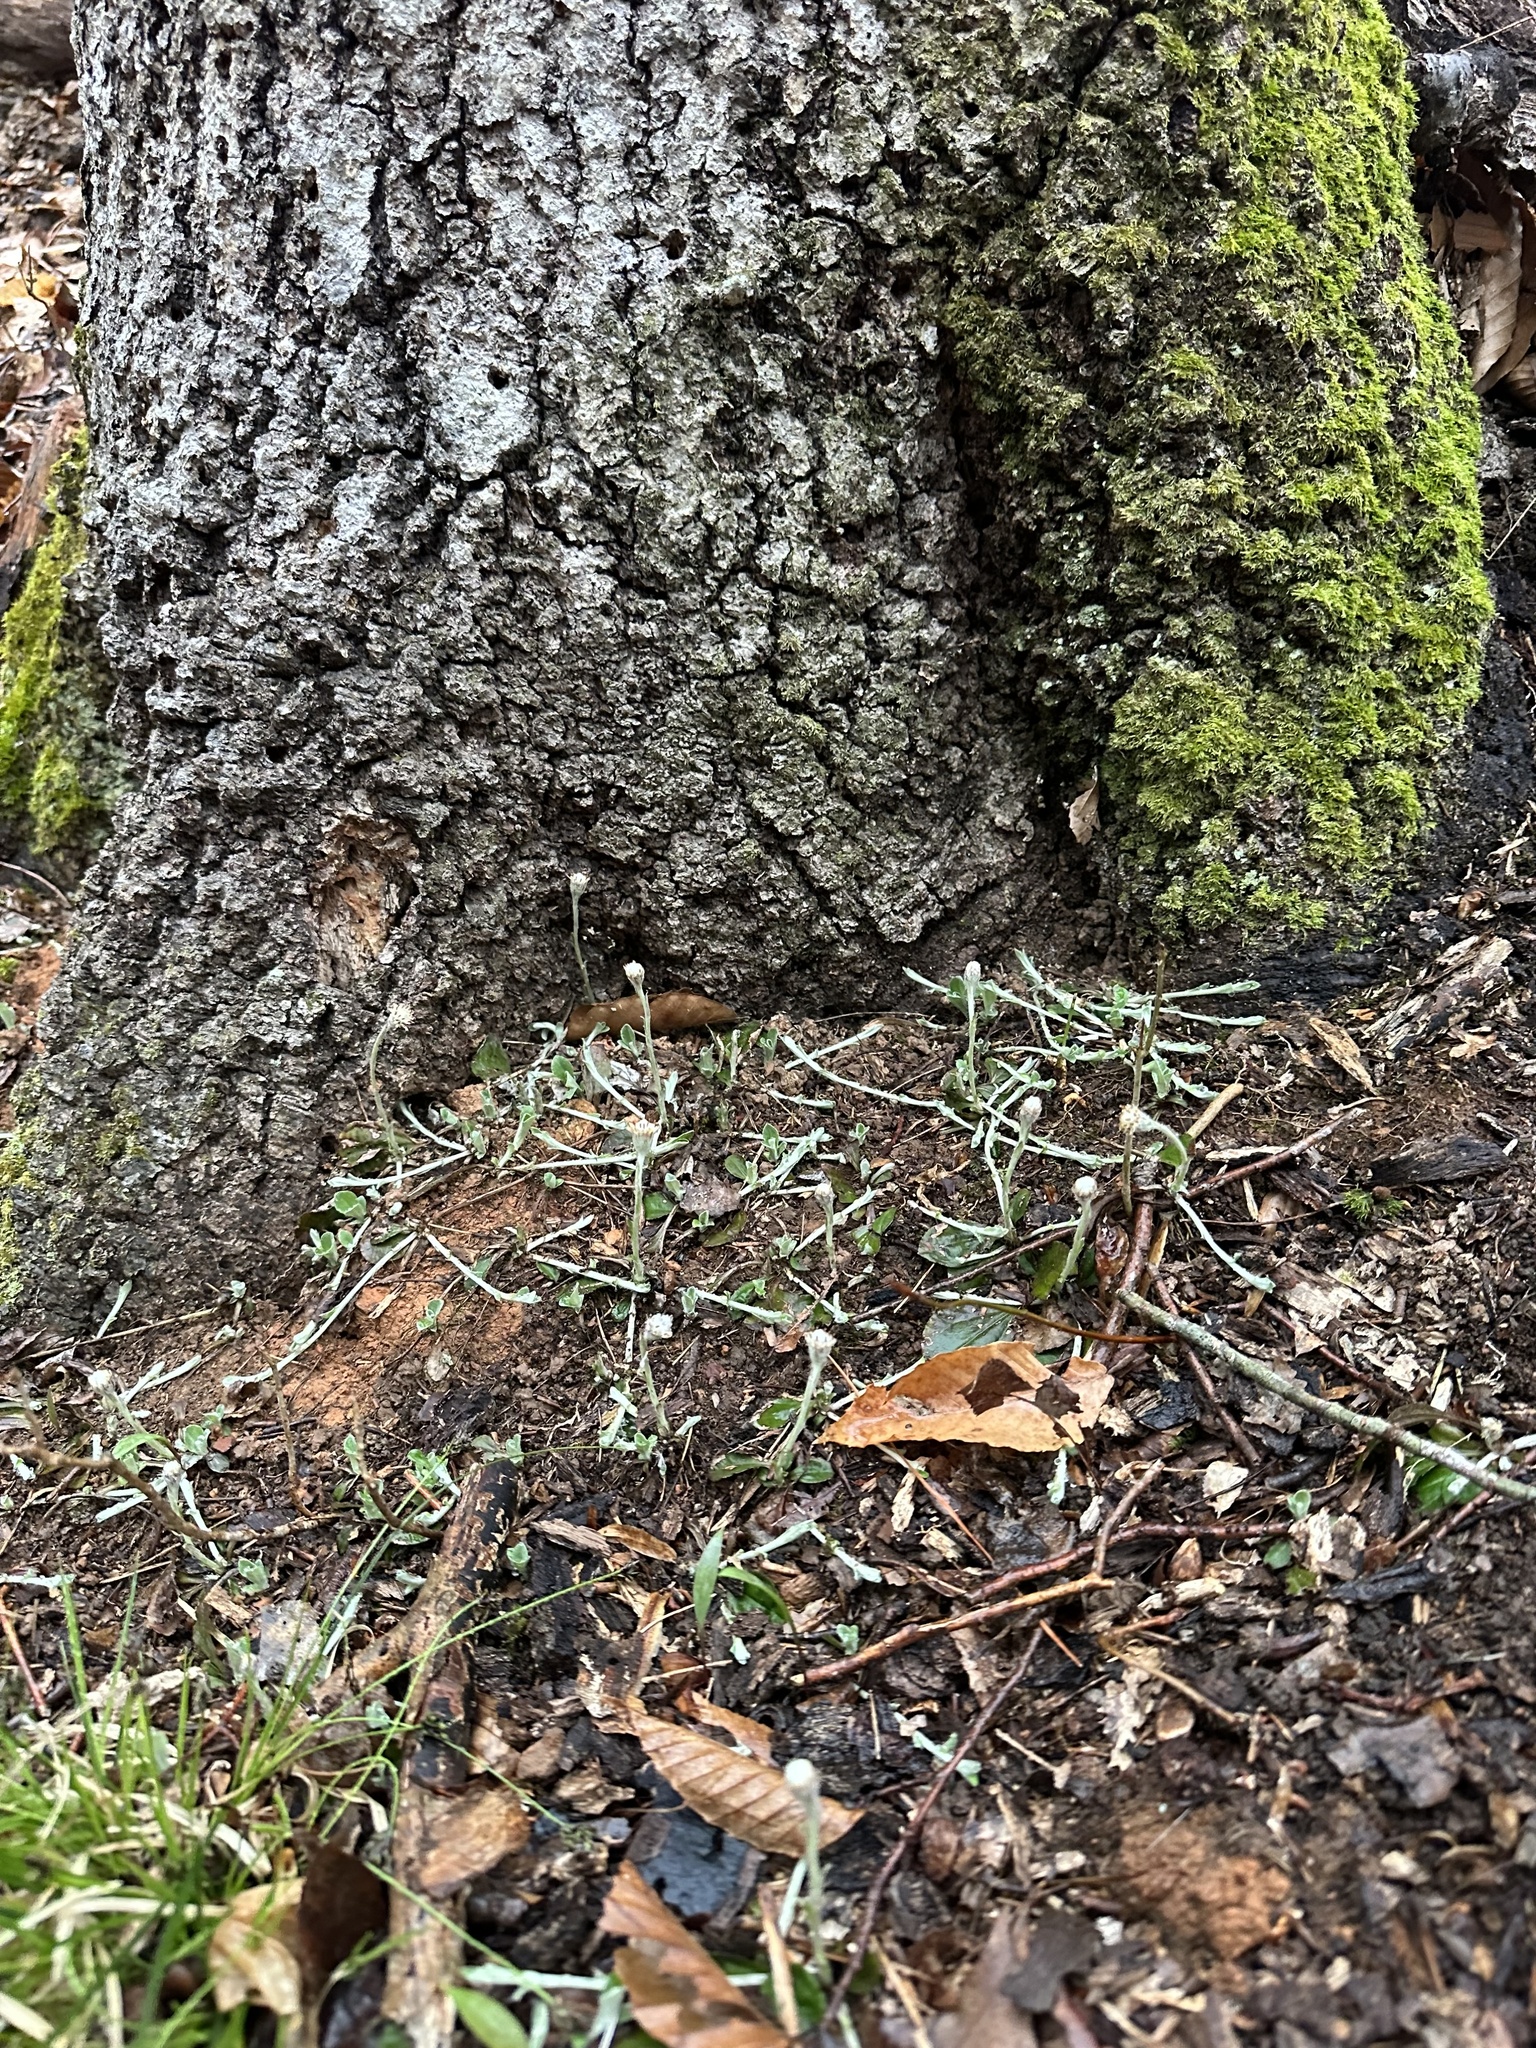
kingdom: Plantae
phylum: Tracheophyta
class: Magnoliopsida
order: Asterales
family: Asteraceae
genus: Antennaria
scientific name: Antennaria solitaria
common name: Single-head pussytoes
